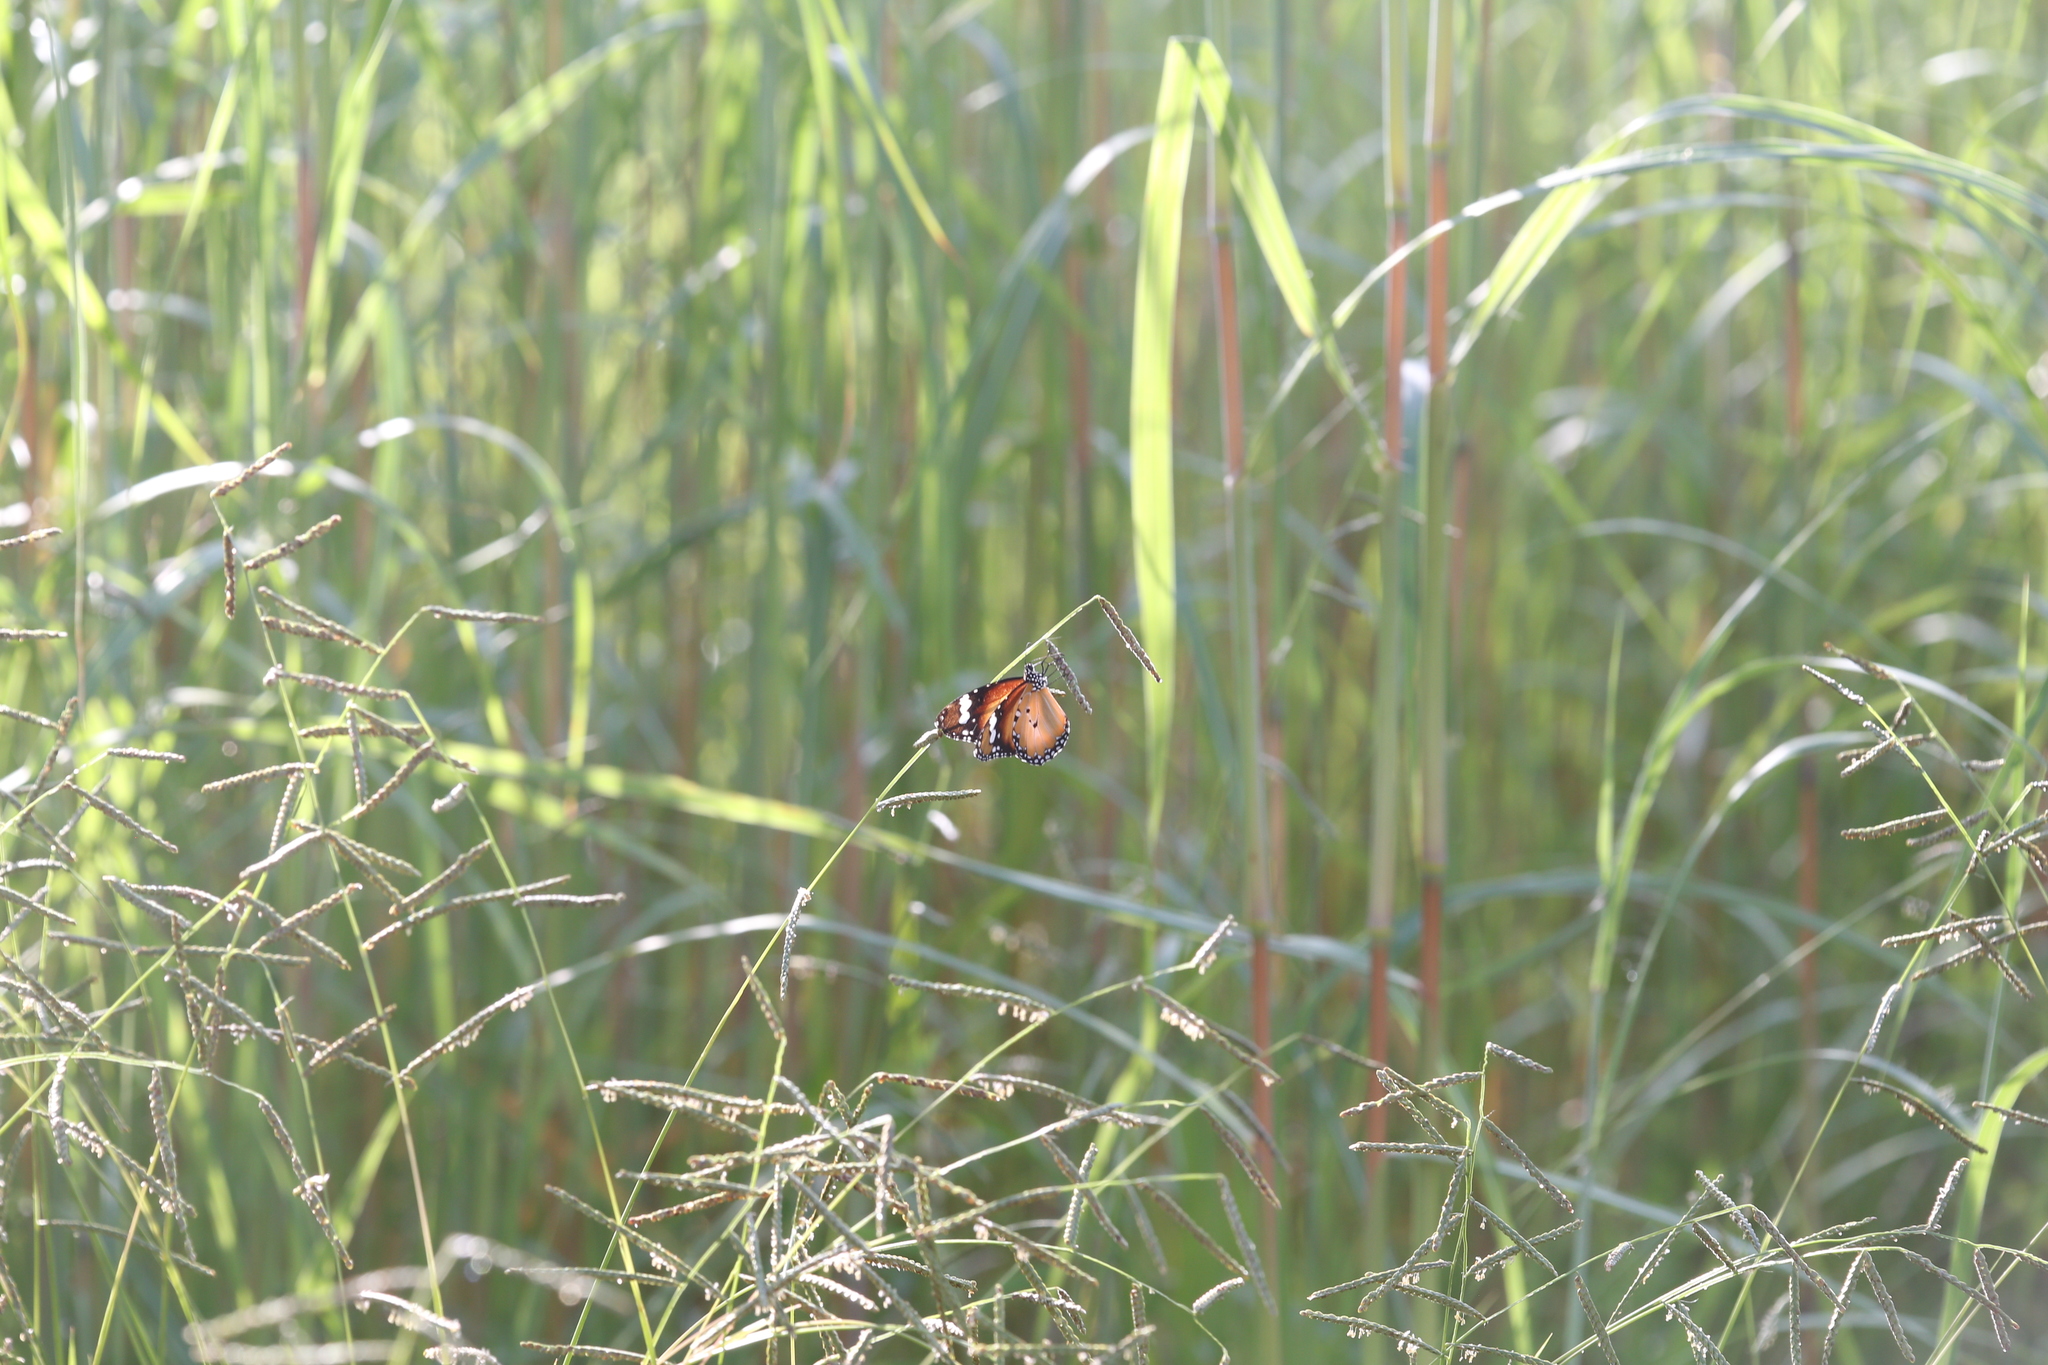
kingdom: Animalia
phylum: Arthropoda
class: Insecta
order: Lepidoptera
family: Nymphalidae
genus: Danaus
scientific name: Danaus chrysippus
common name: Plain tiger
